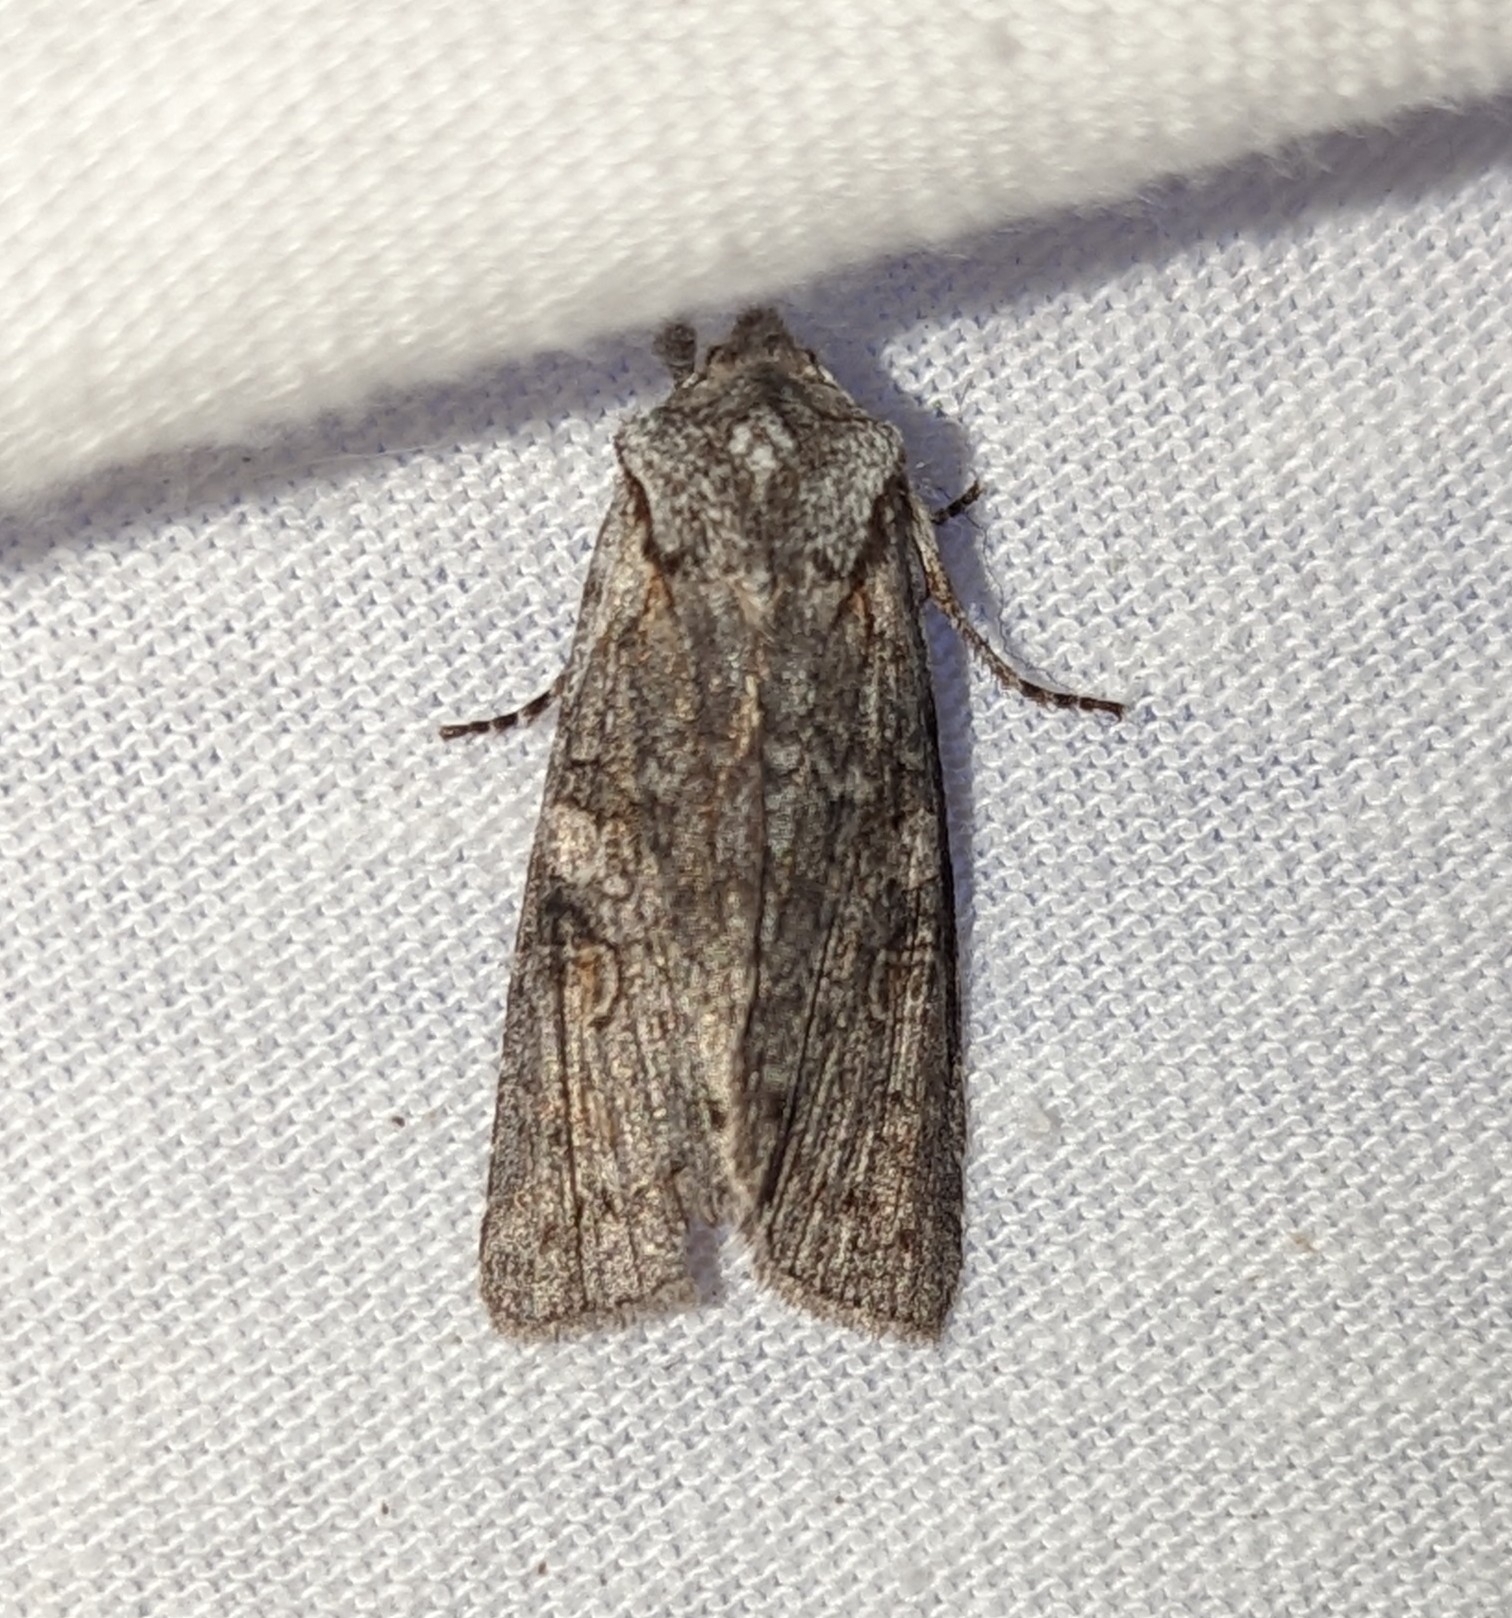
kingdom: Animalia
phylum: Arthropoda
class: Insecta
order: Lepidoptera
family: Noctuidae
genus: Lithophane
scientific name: Lithophane pertorrida
